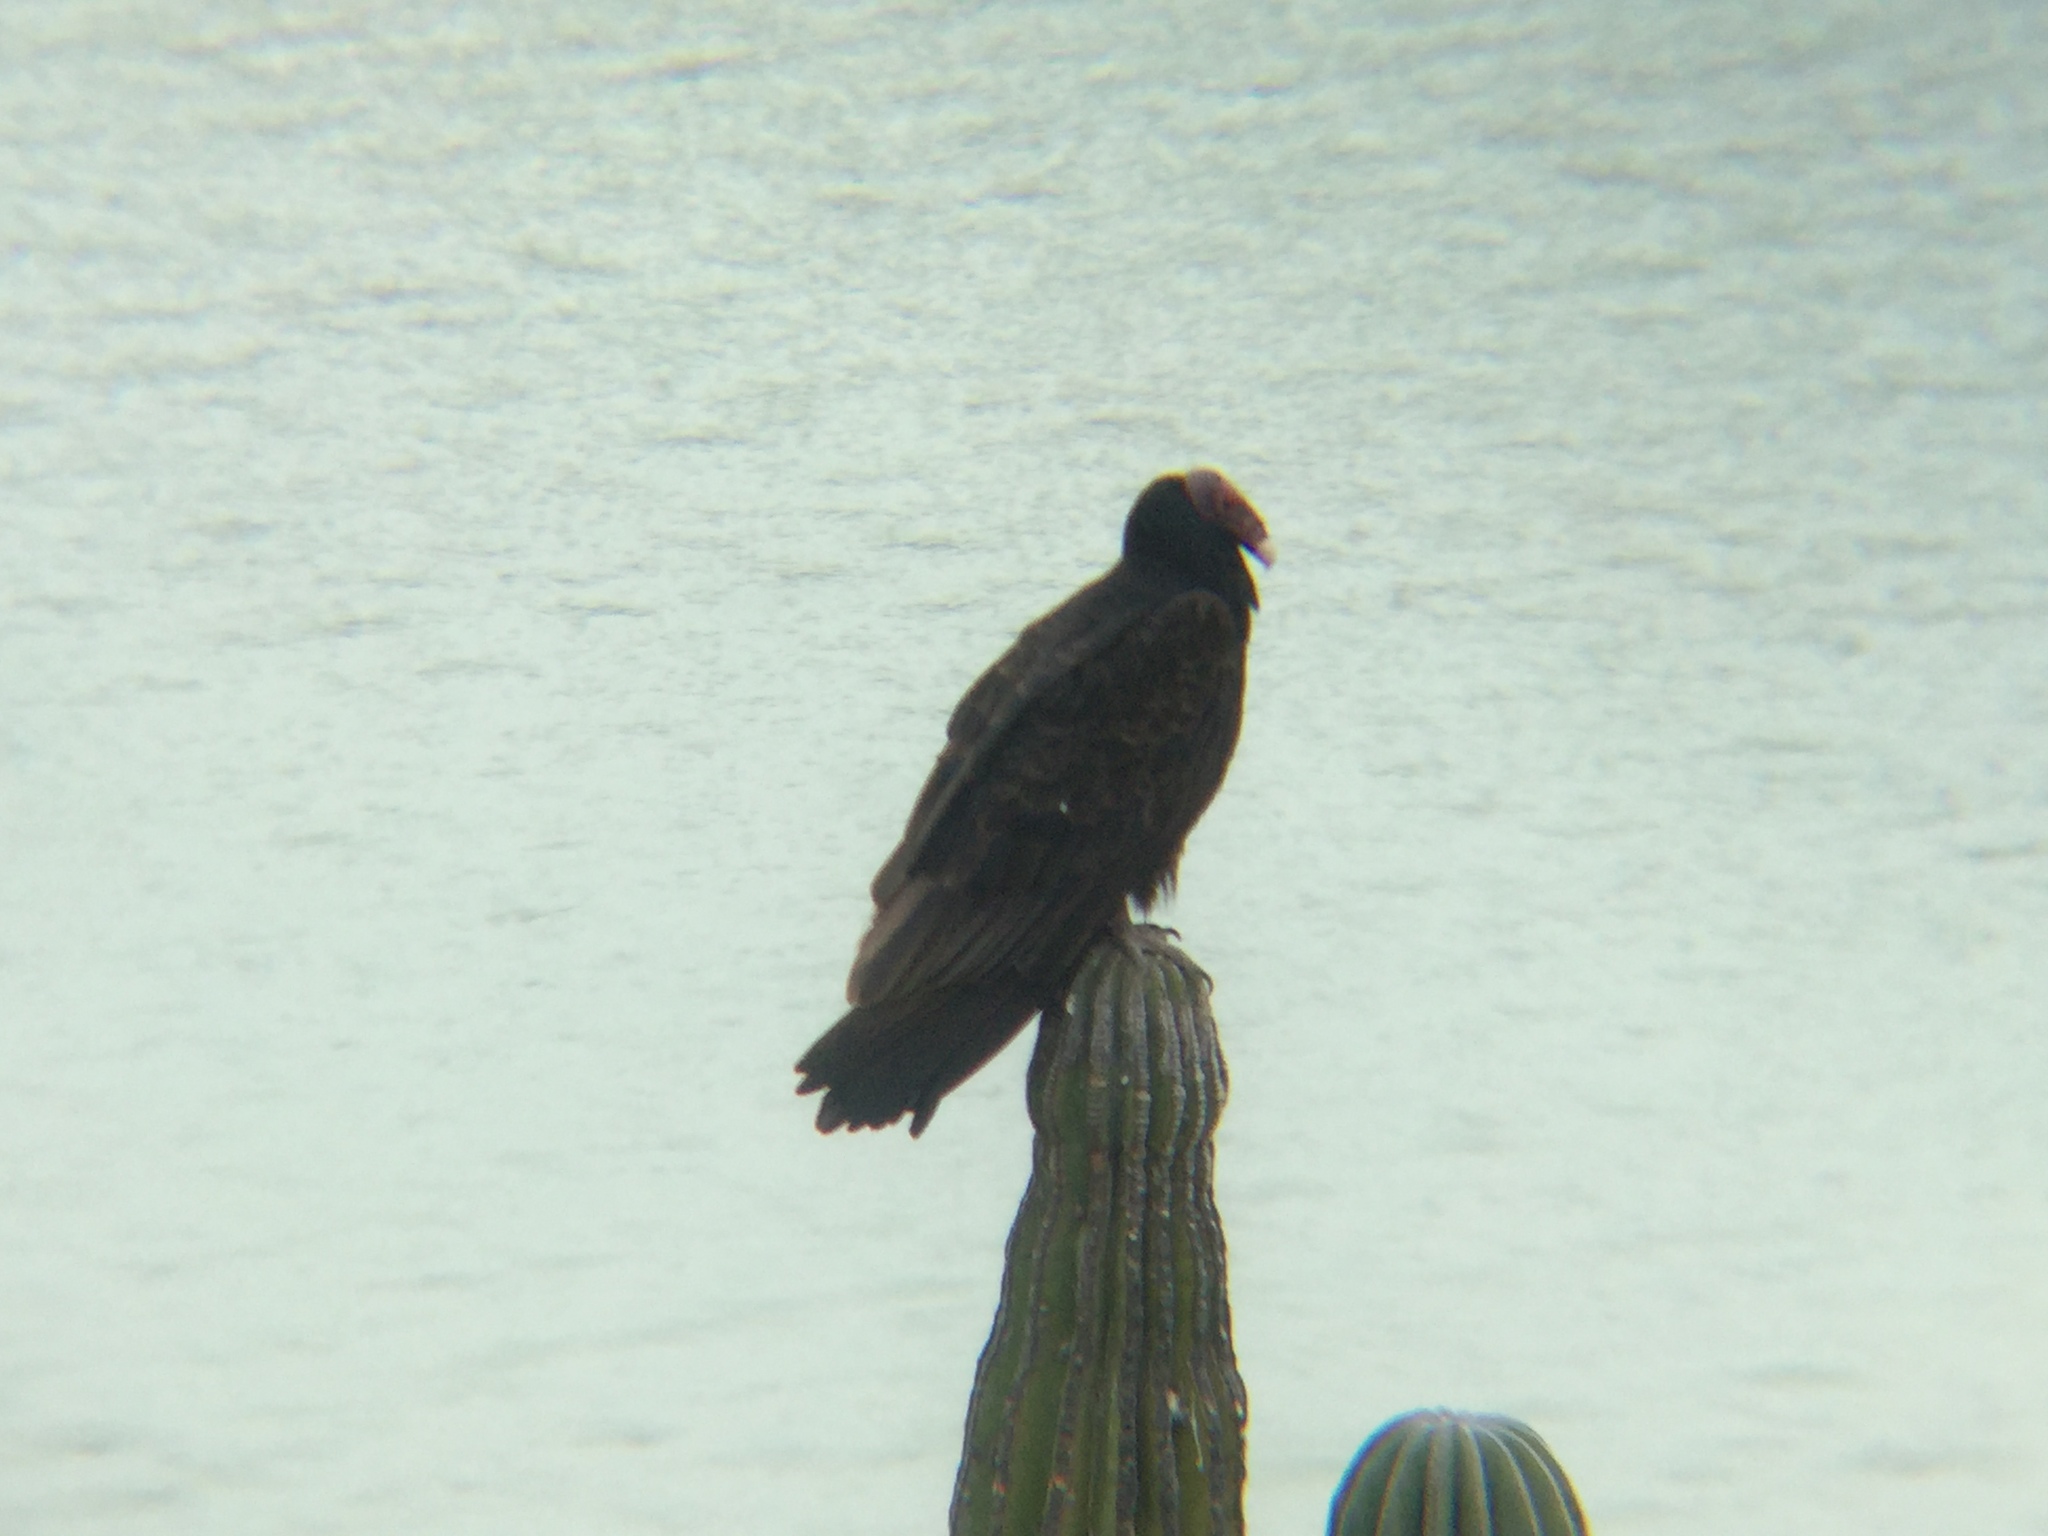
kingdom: Animalia
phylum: Chordata
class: Aves
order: Accipitriformes
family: Cathartidae
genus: Cathartes
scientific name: Cathartes aura
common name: Turkey vulture
